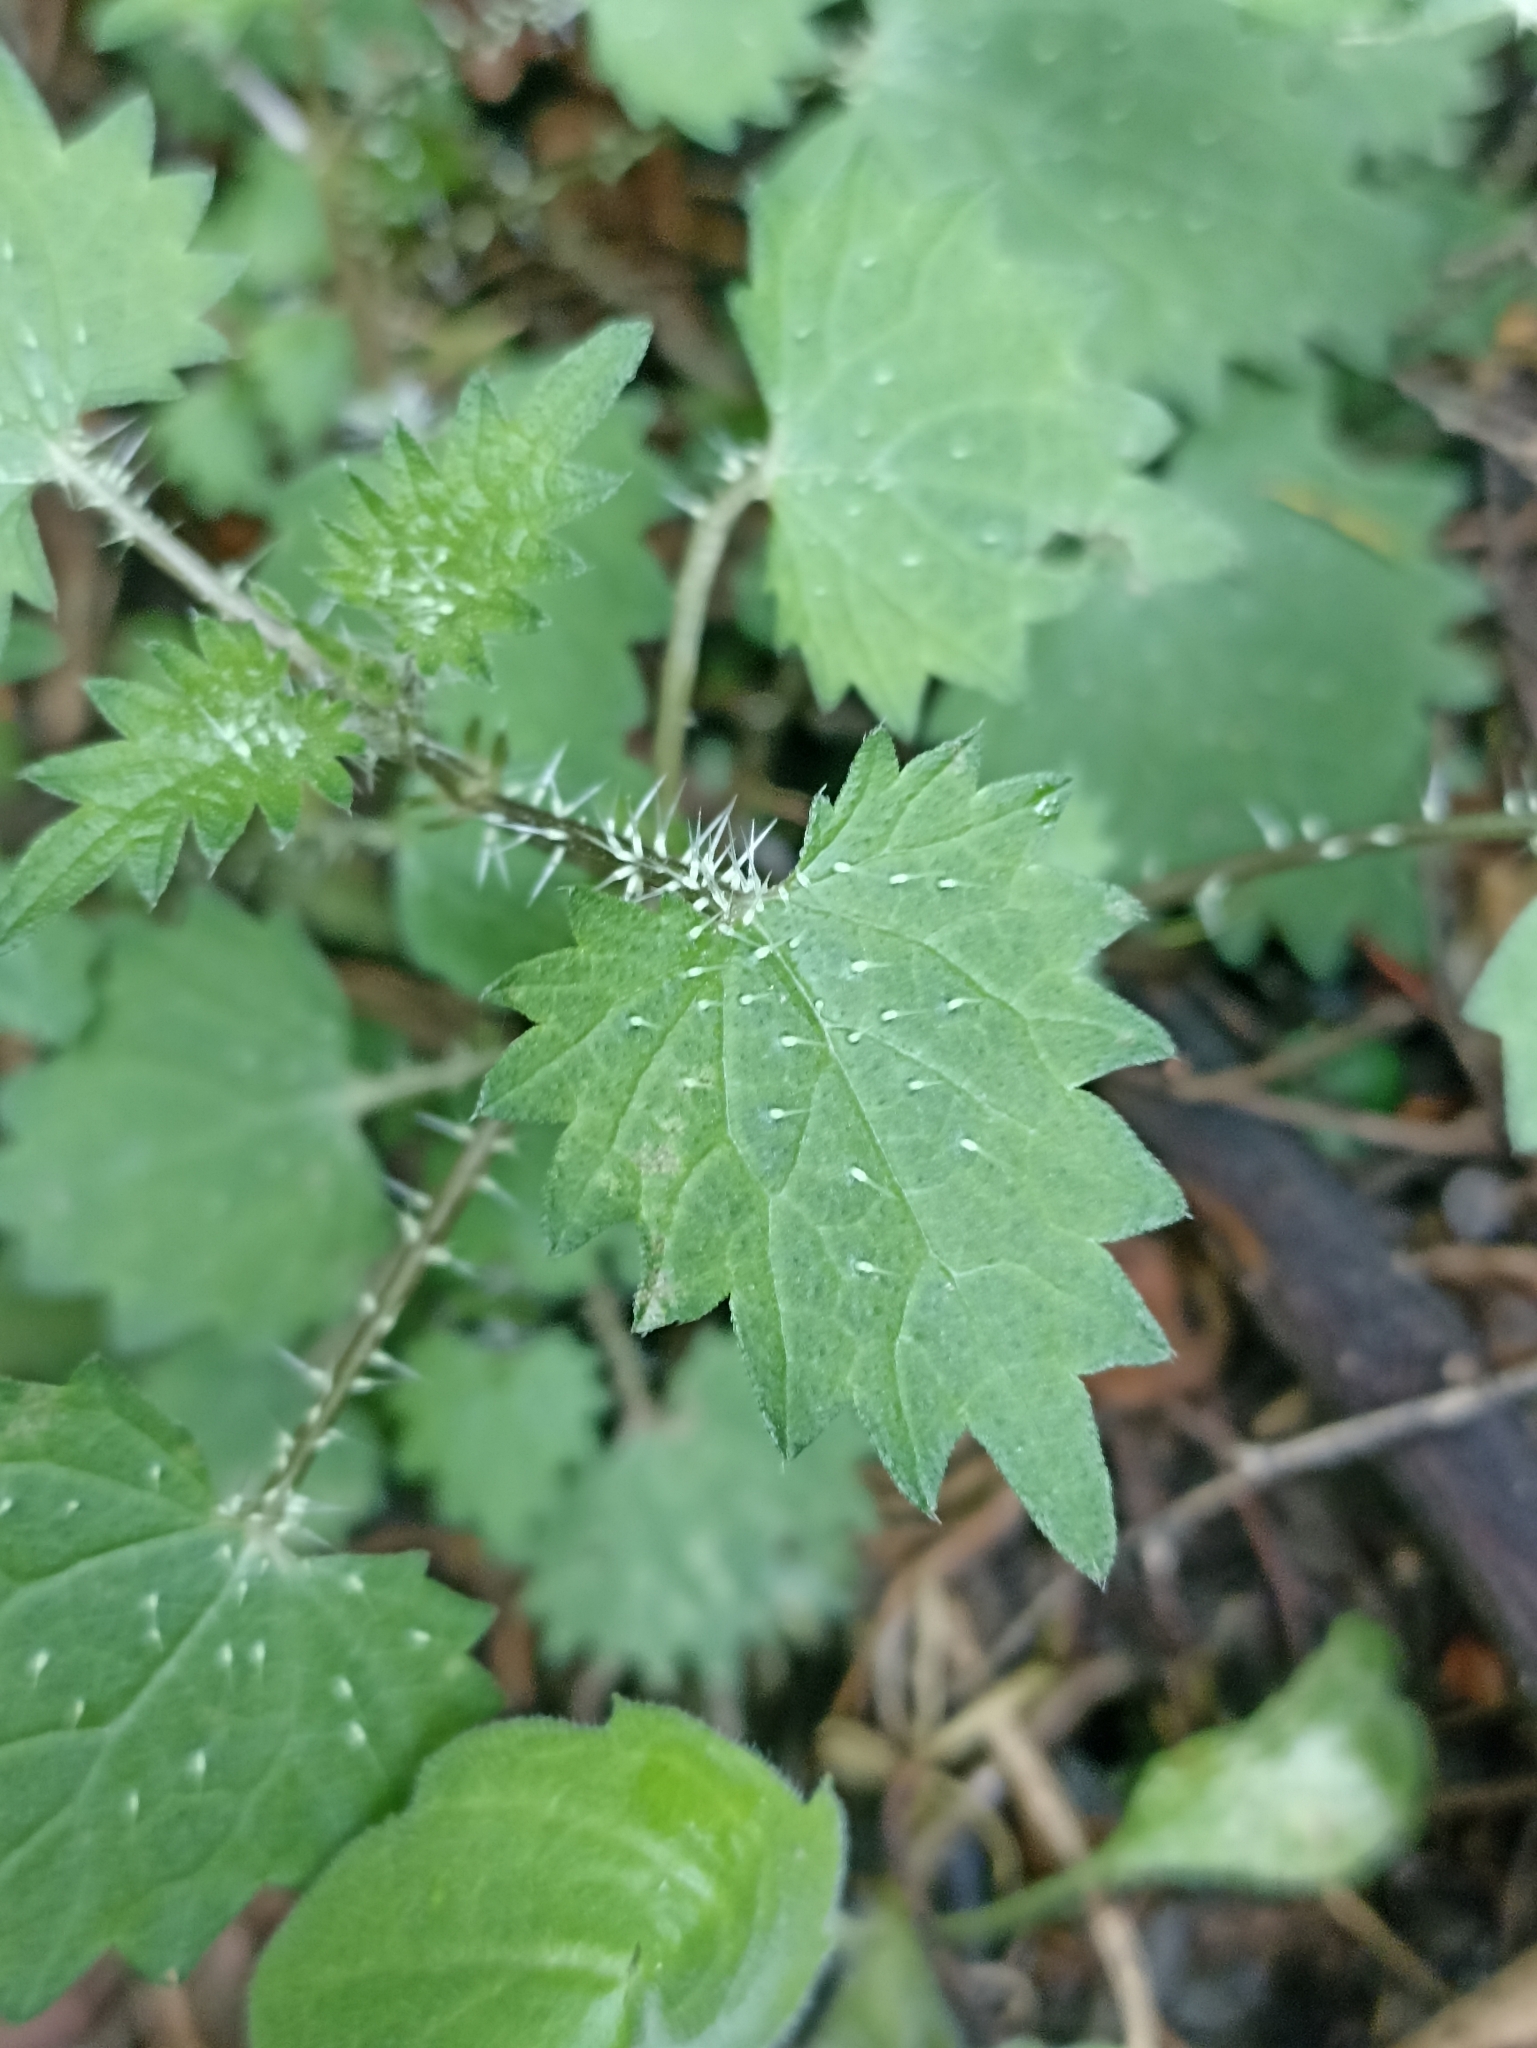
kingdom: Plantae
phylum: Tracheophyta
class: Magnoliopsida
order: Rosales
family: Urticaceae
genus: Urtica
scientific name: Urtica sykesii
